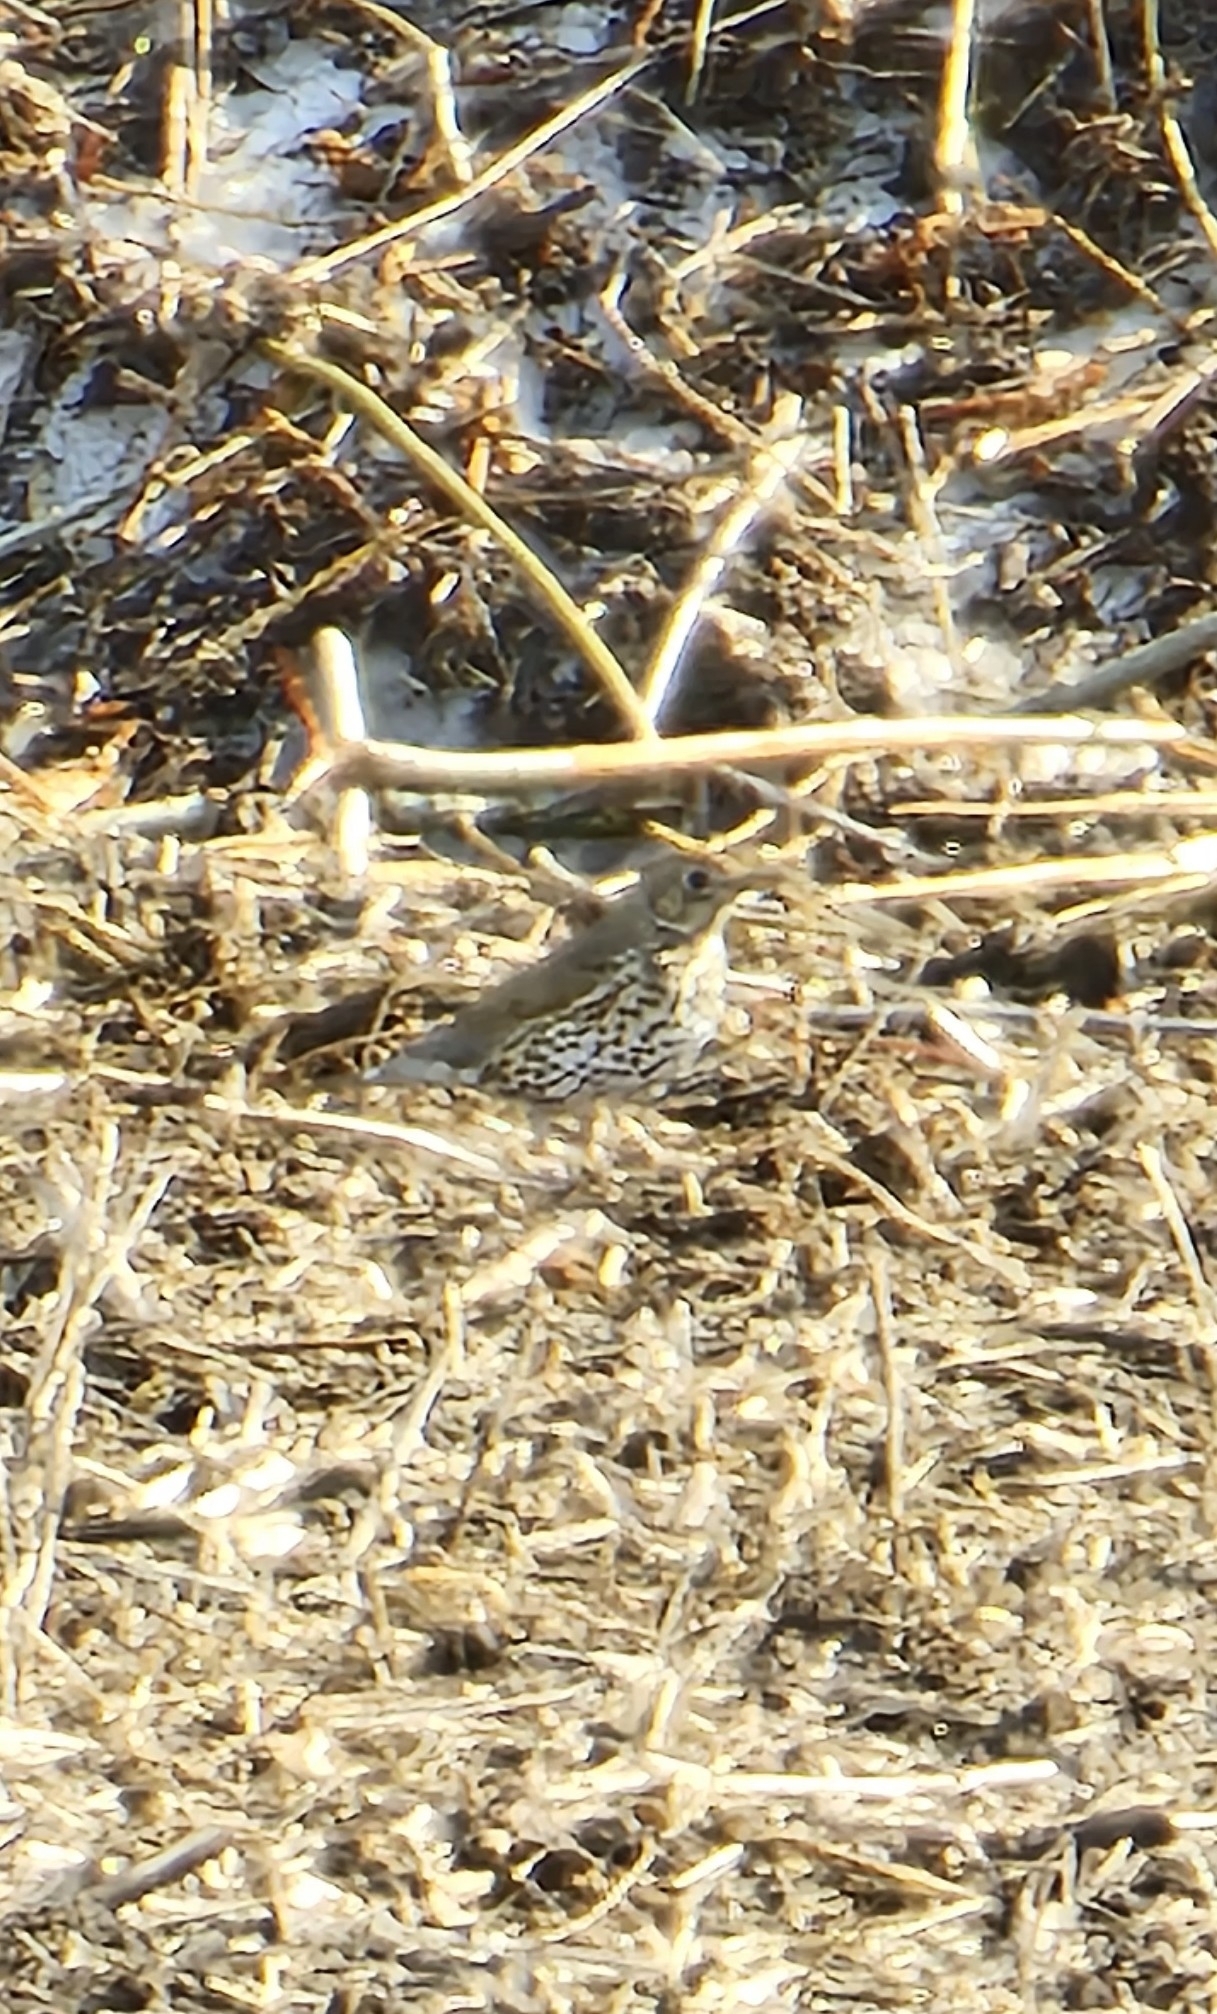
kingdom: Animalia
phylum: Chordata
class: Aves
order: Passeriformes
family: Turdidae
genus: Turdus
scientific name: Turdus philomelos
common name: Song thrush
